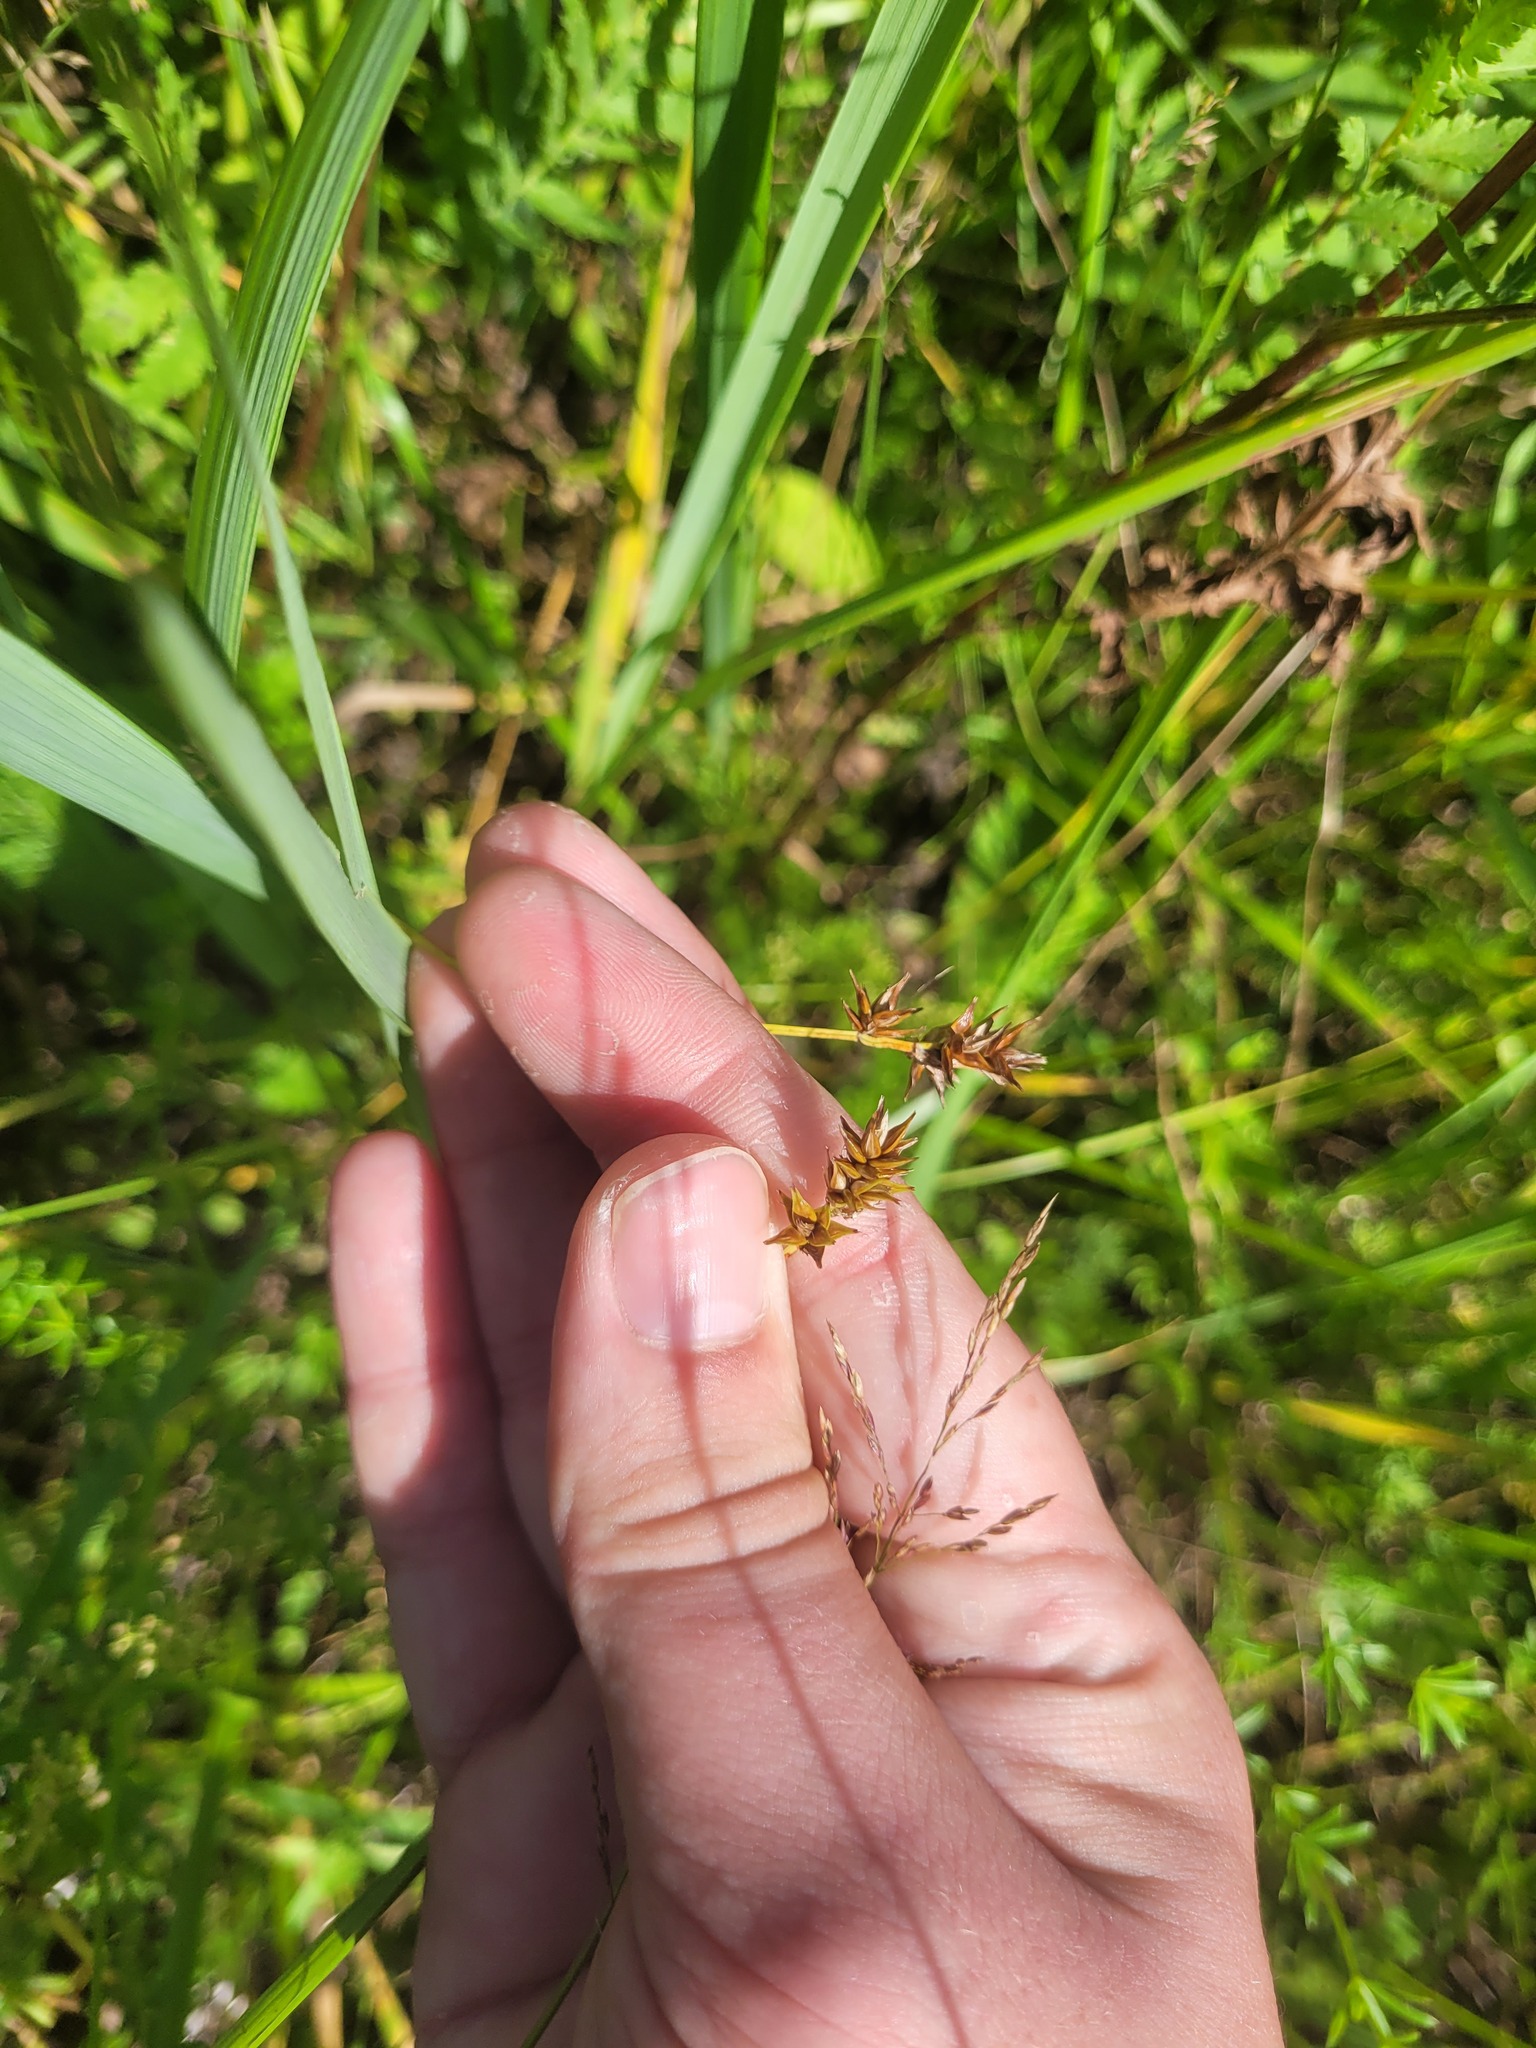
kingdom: Plantae
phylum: Tracheophyta
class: Liliopsida
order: Poales
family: Cyperaceae
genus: Carex
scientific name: Carex spicata
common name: Spiked sedge
